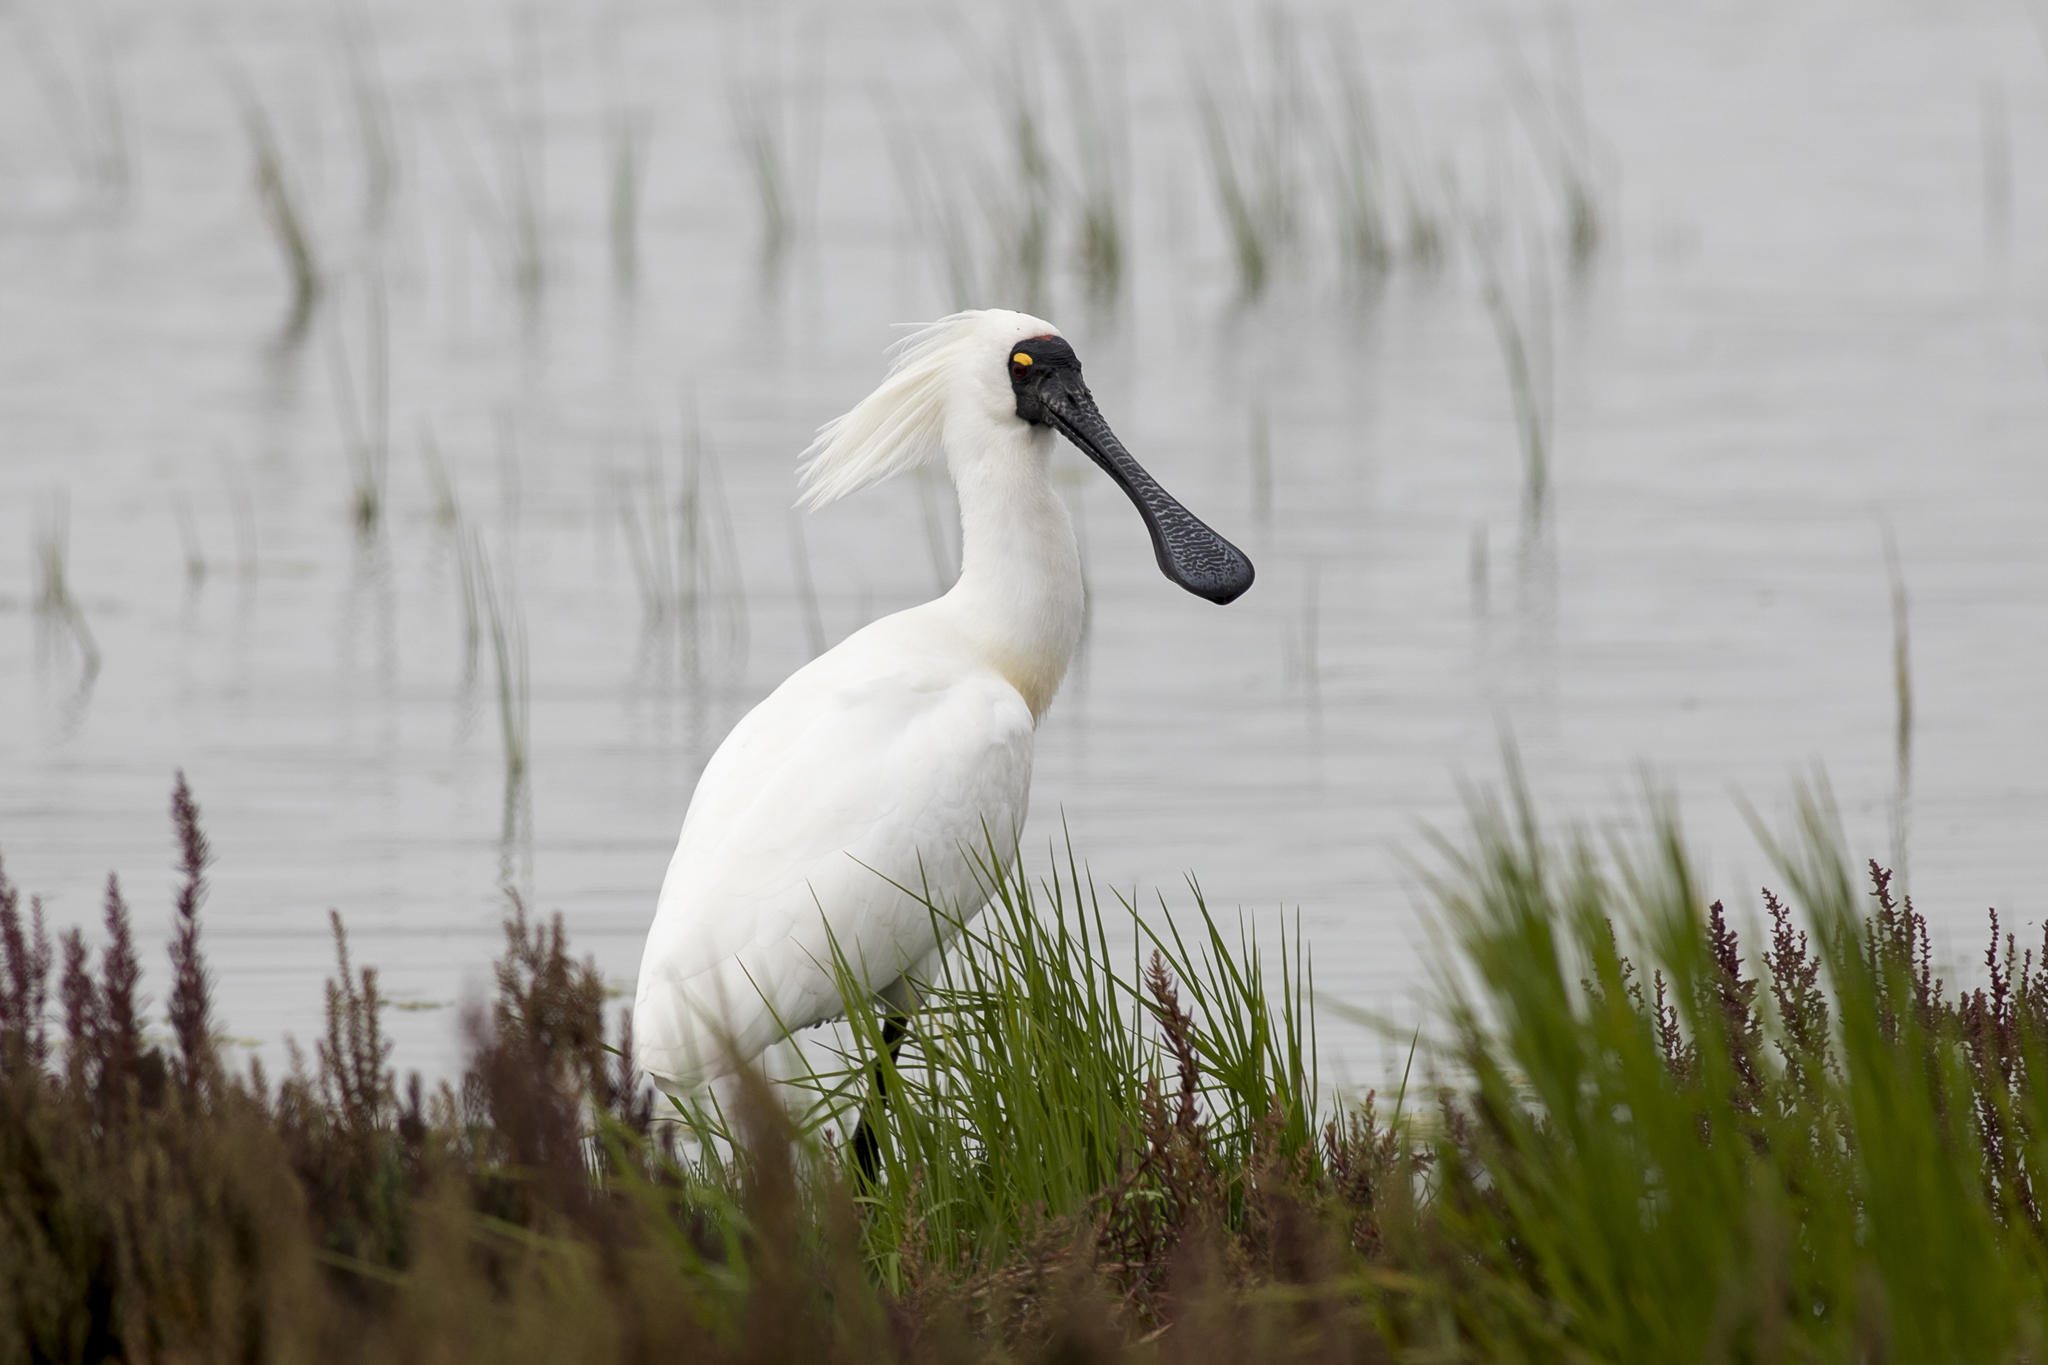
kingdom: Animalia
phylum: Chordata
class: Aves
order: Pelecaniformes
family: Threskiornithidae
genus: Platalea
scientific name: Platalea regia
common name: Royal spoonbill
